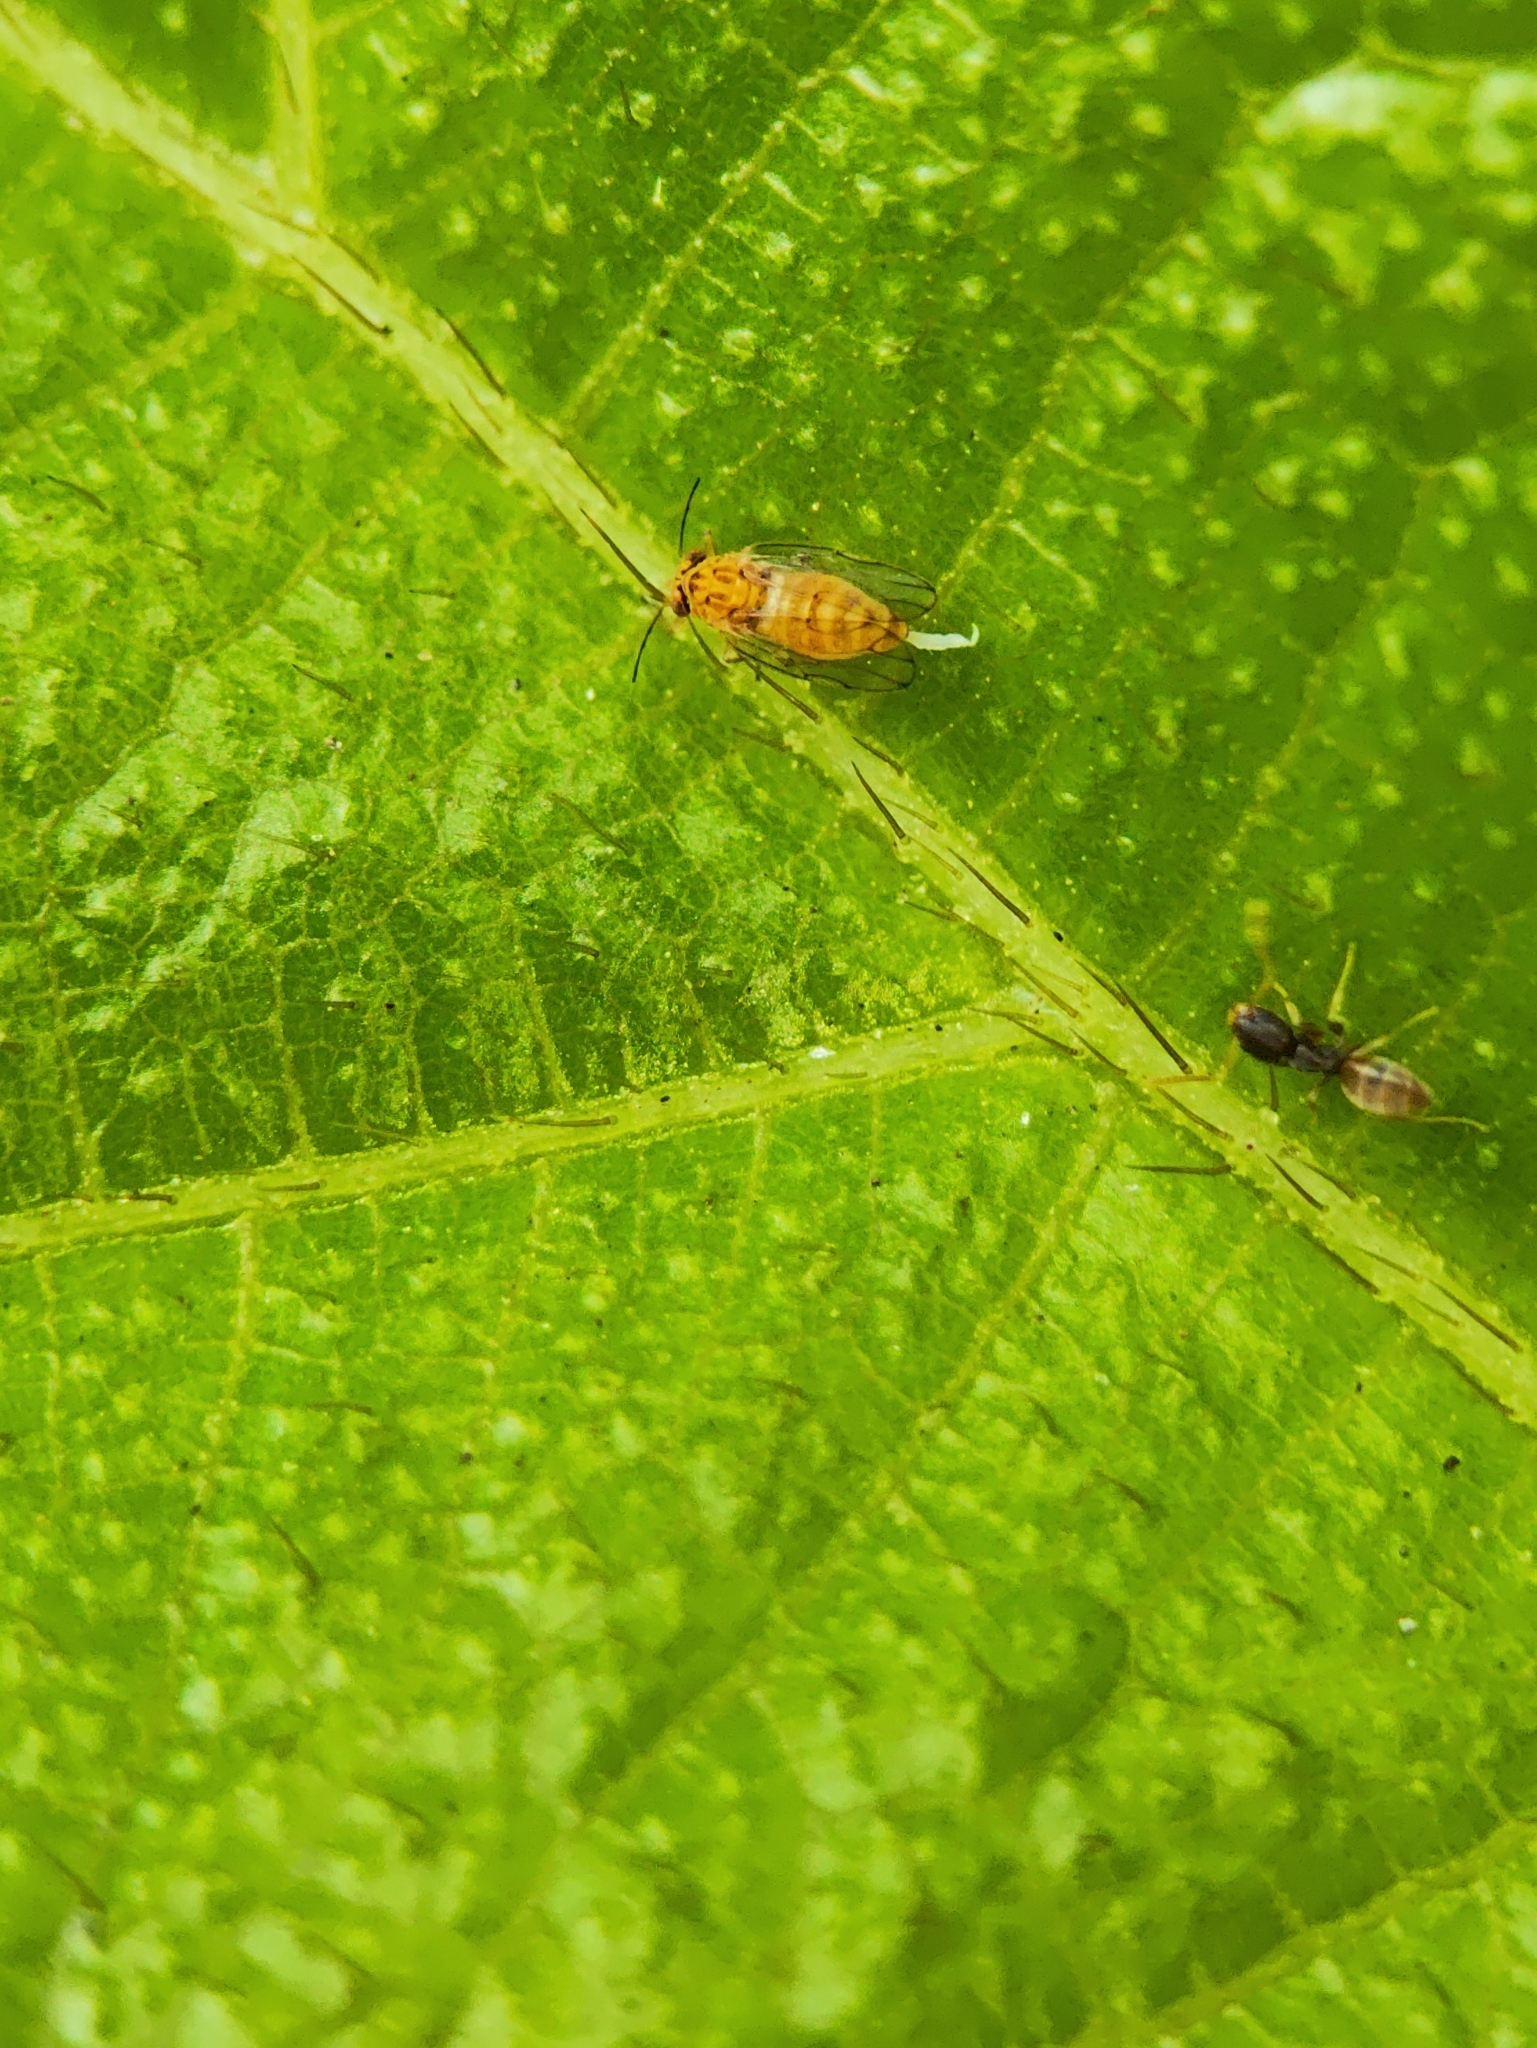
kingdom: Animalia
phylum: Arthropoda
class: Insecta
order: Hymenoptera
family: Formicidae
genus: Tapinoma
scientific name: Tapinoma melanocephalum
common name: Ghost ant
